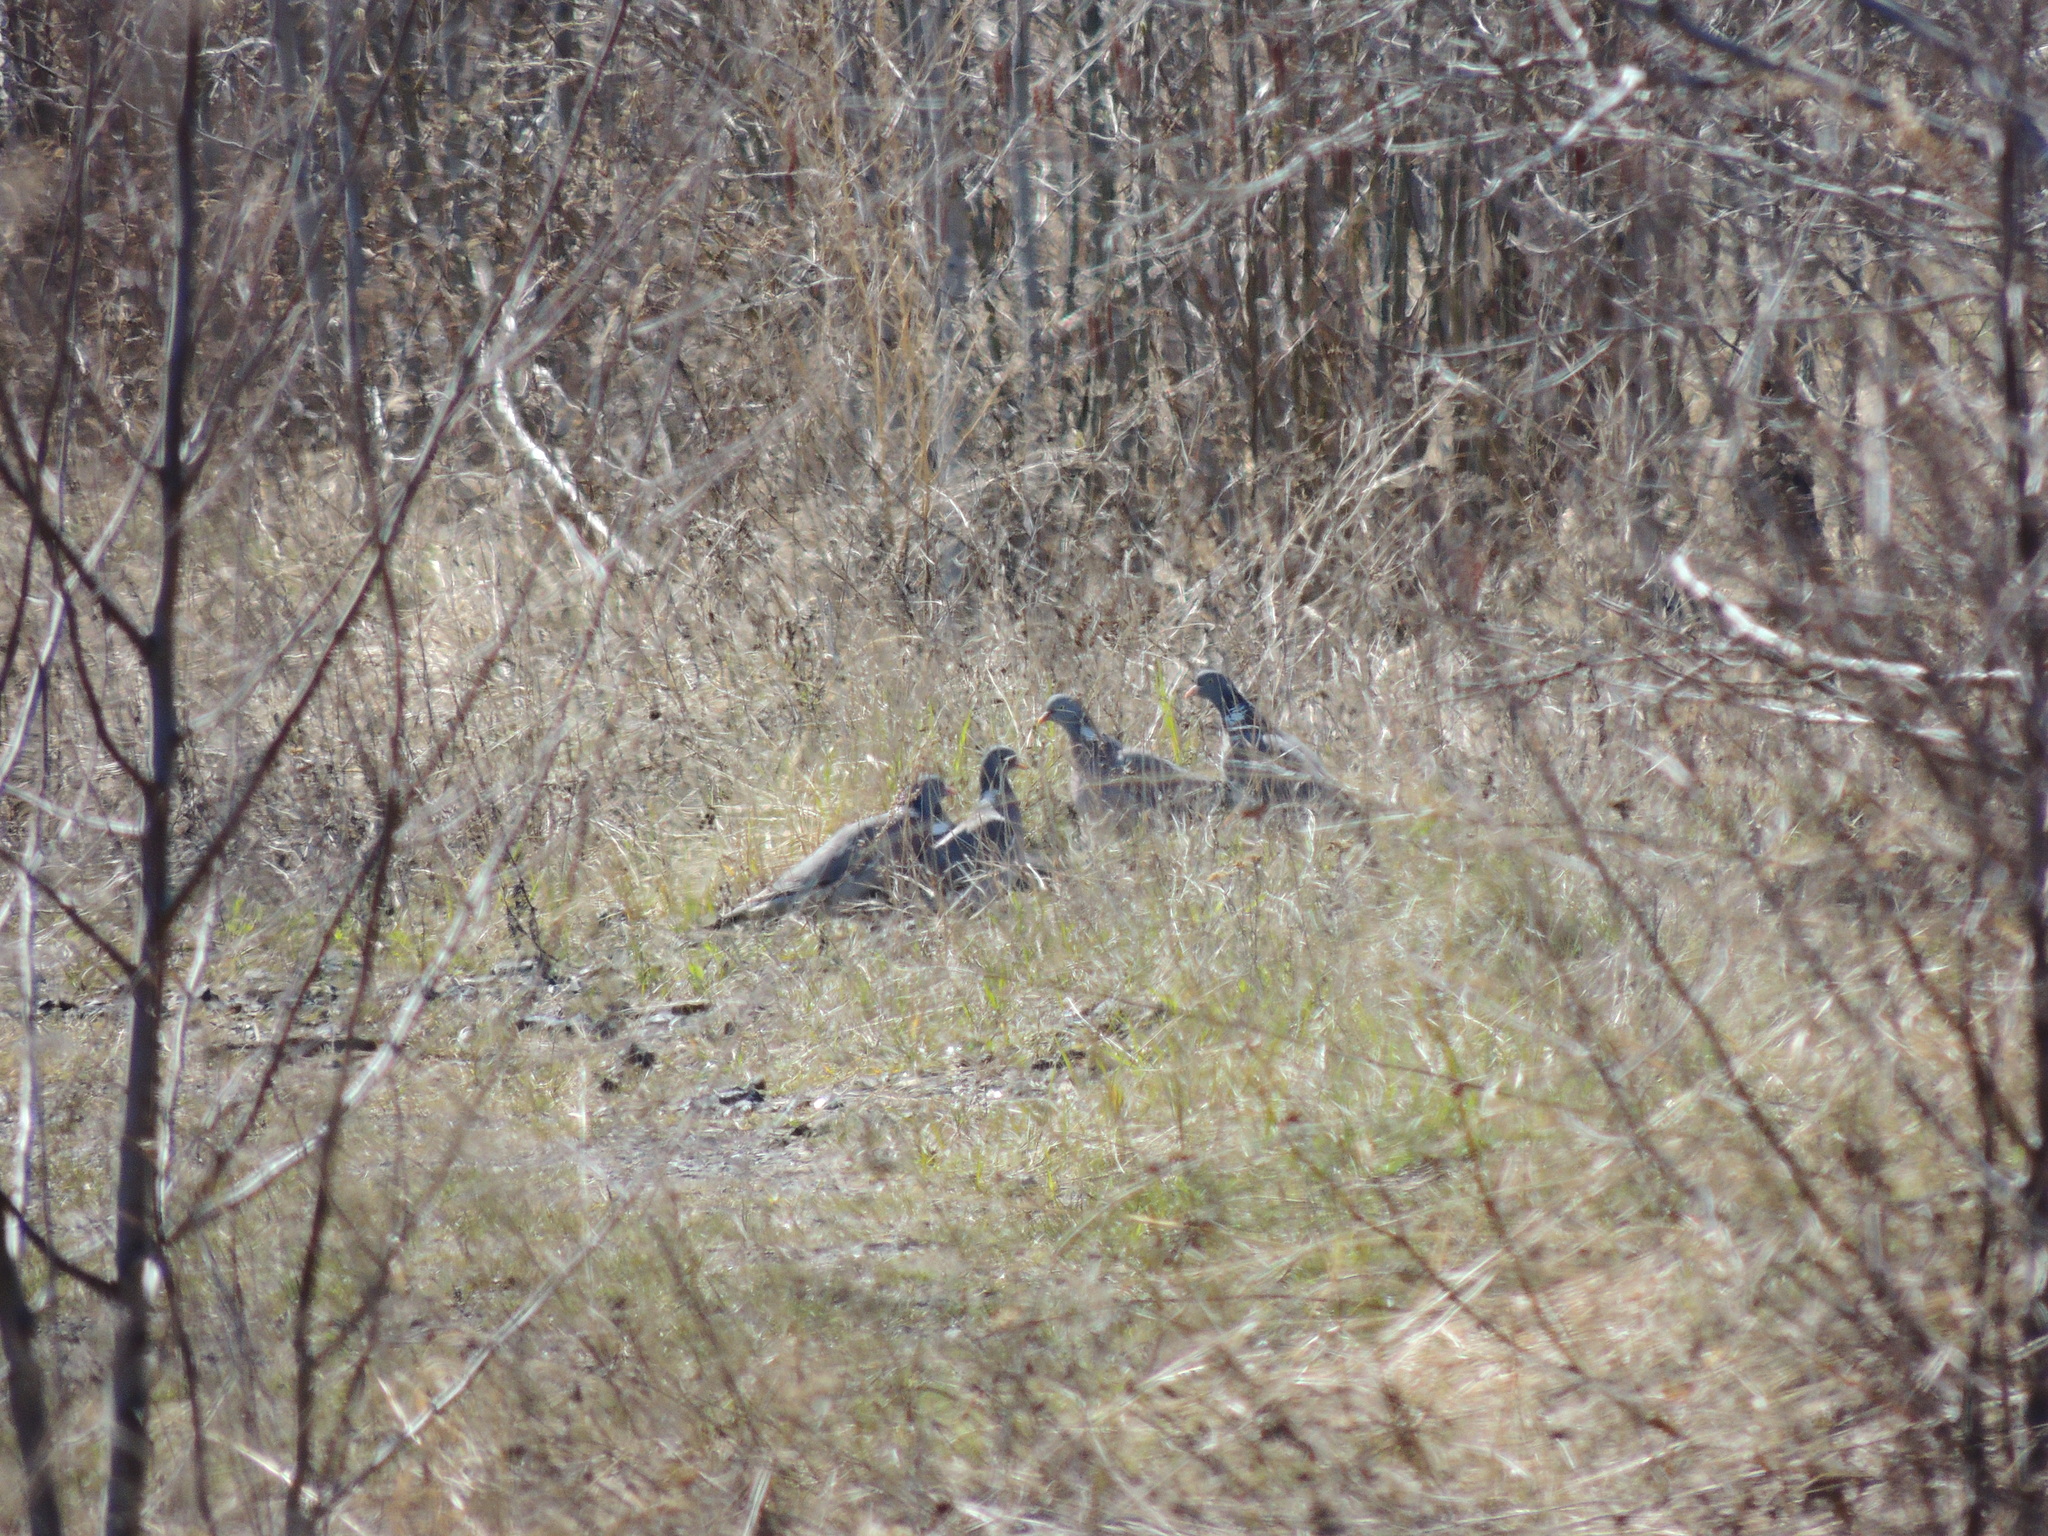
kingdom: Animalia
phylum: Chordata
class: Aves
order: Columbiformes
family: Columbidae
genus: Columba
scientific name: Columba palumbus
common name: Common wood pigeon
